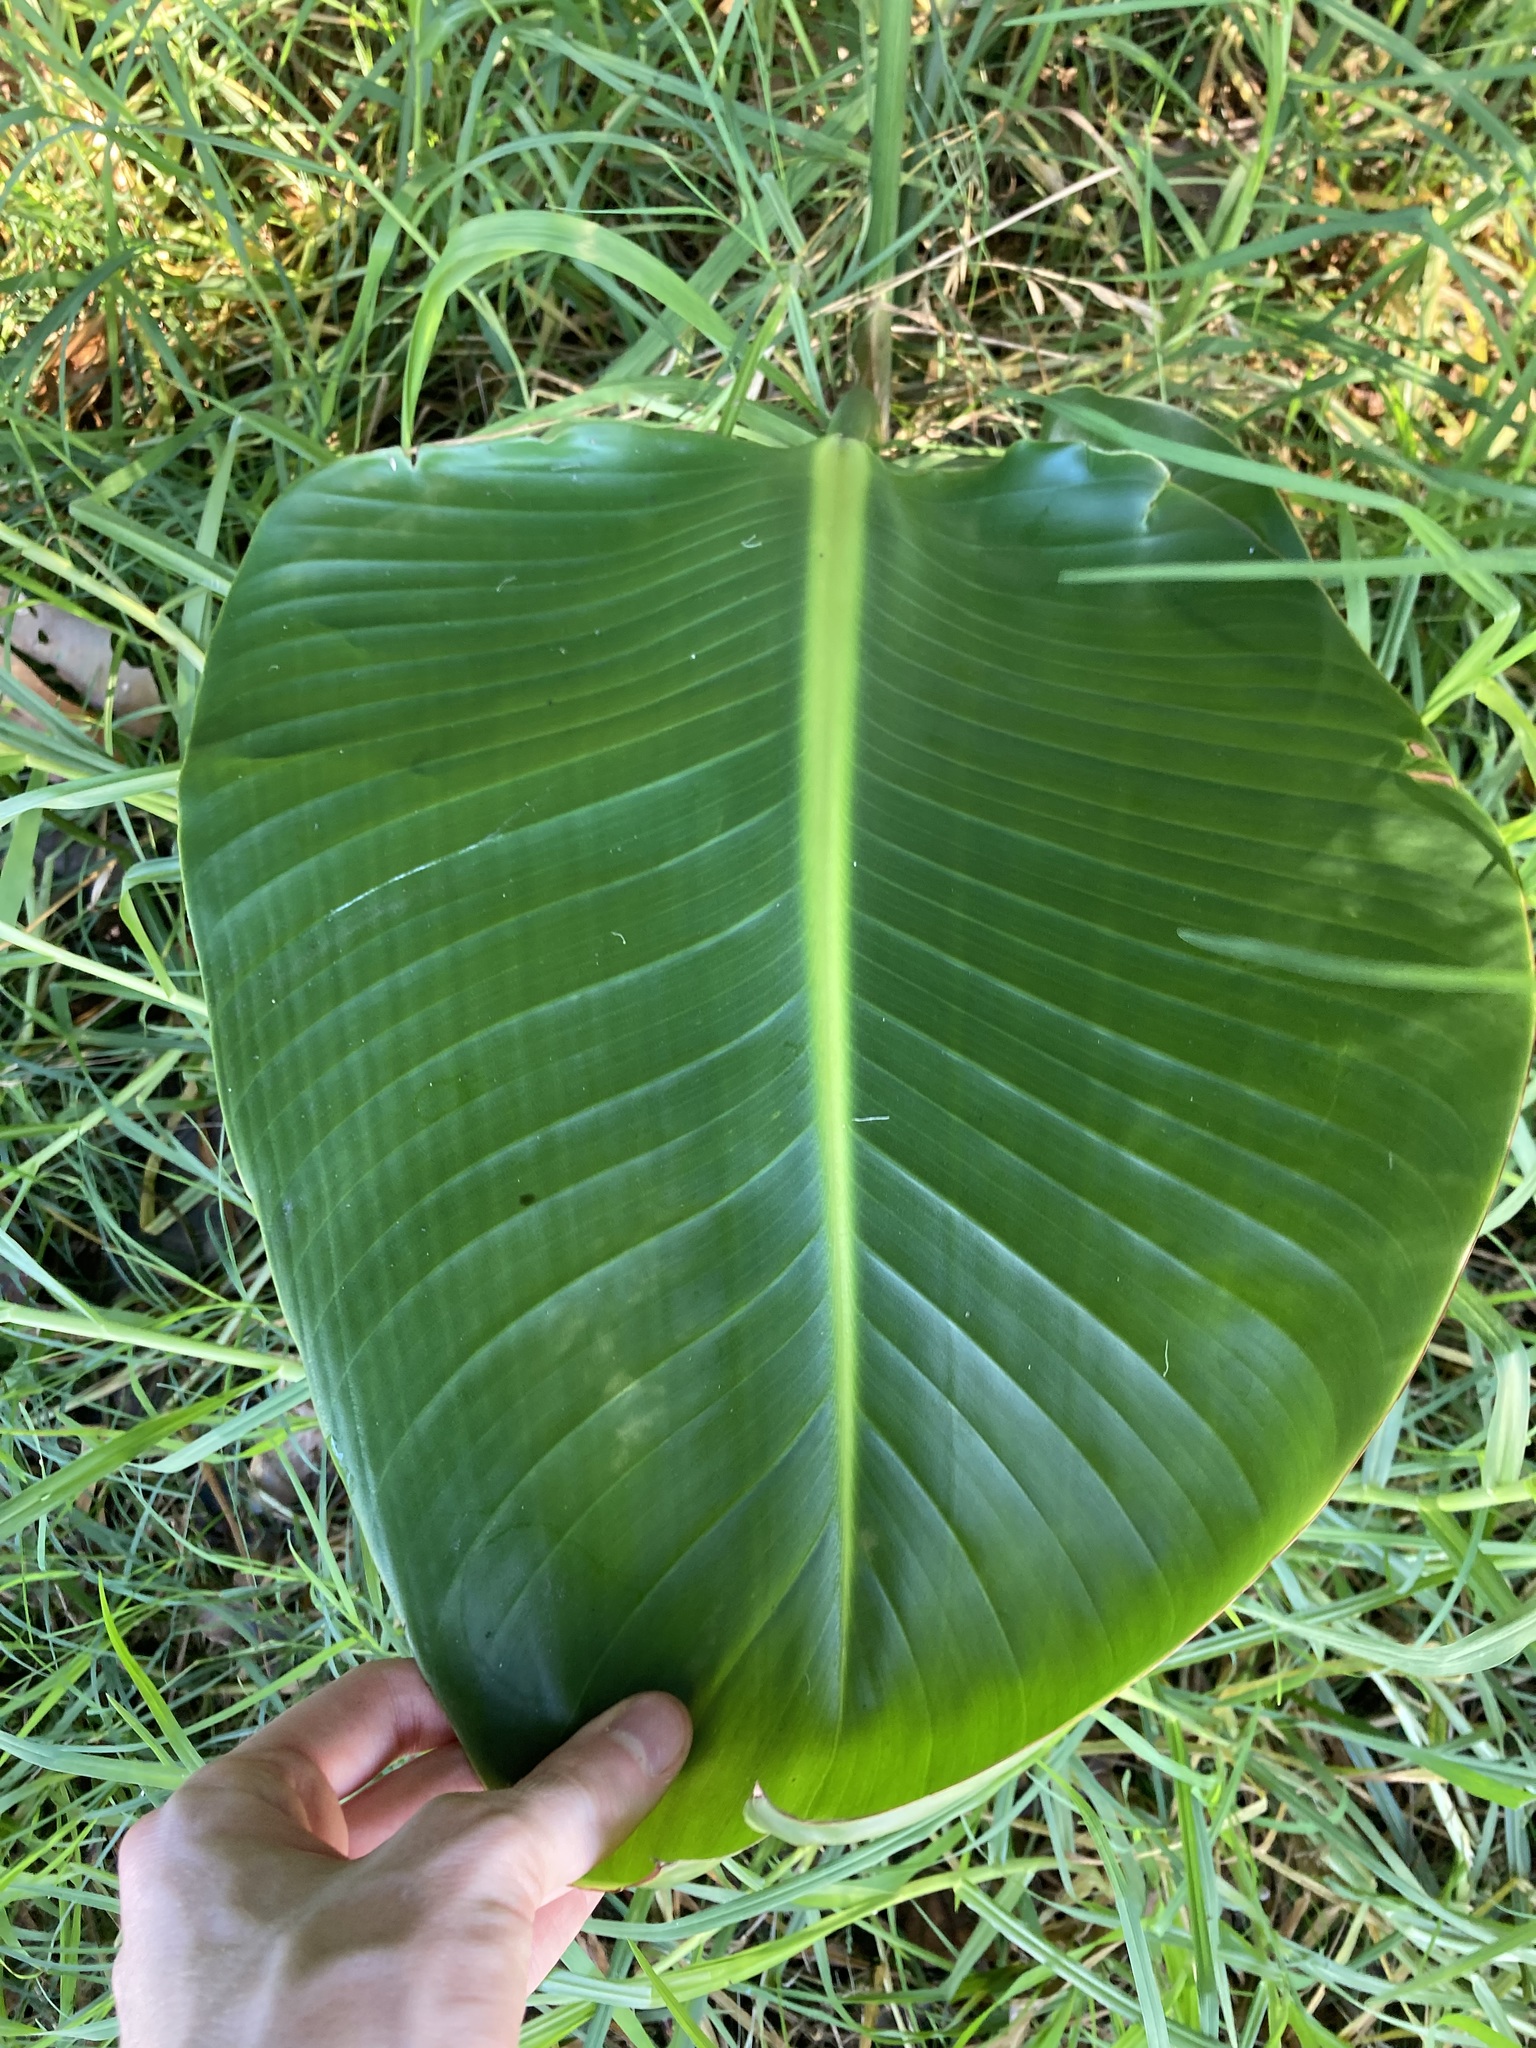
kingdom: Plantae
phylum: Tracheophyta
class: Liliopsida
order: Zingiberales
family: Strelitziaceae
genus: Strelitzia
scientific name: Strelitzia nicolai
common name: Bird-of-paradise tree
